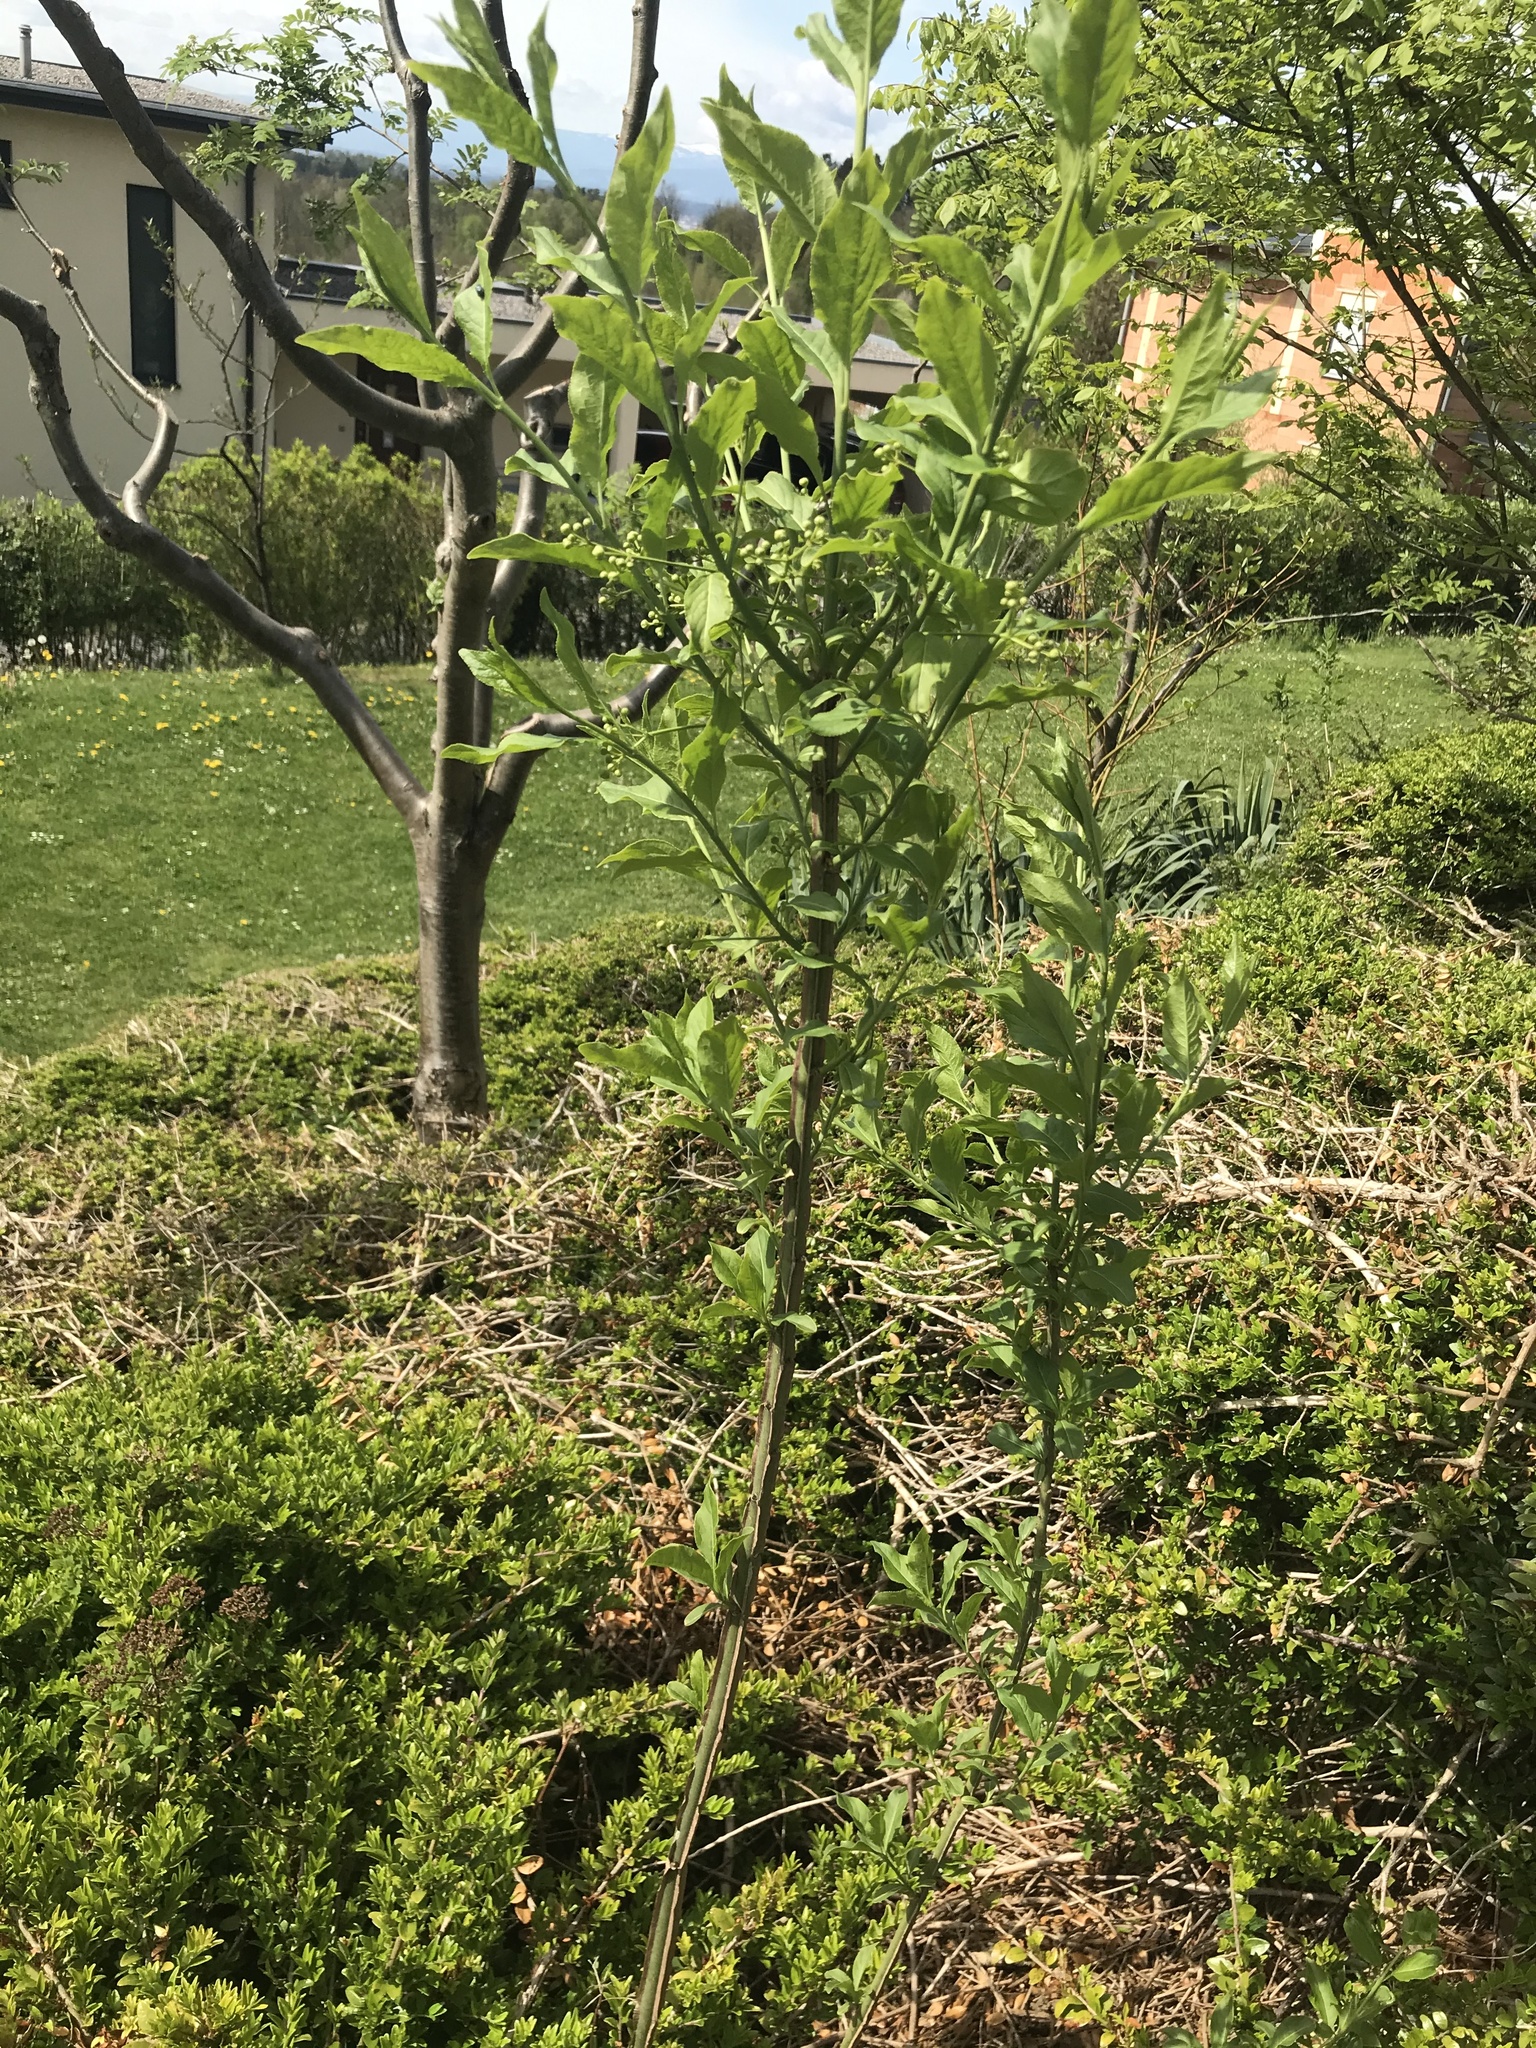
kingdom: Plantae
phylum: Tracheophyta
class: Magnoliopsida
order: Celastrales
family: Celastraceae
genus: Euonymus
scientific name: Euonymus europaeus
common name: Spindle
